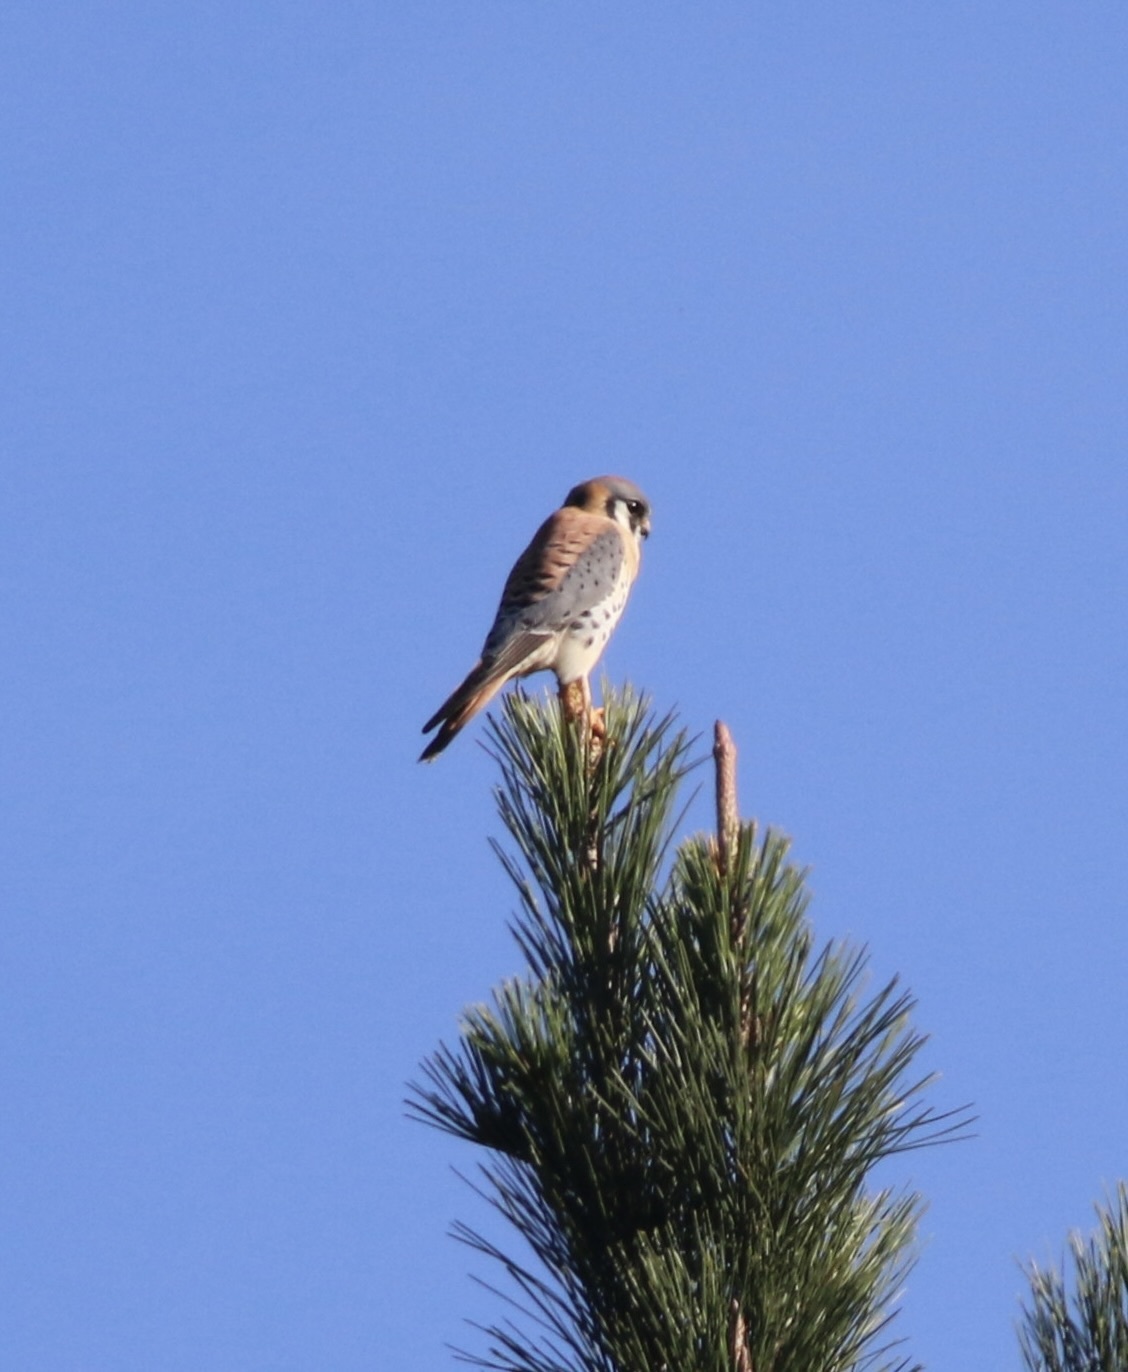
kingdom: Animalia
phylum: Chordata
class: Aves
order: Falconiformes
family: Falconidae
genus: Falco
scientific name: Falco sparverius
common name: American kestrel
